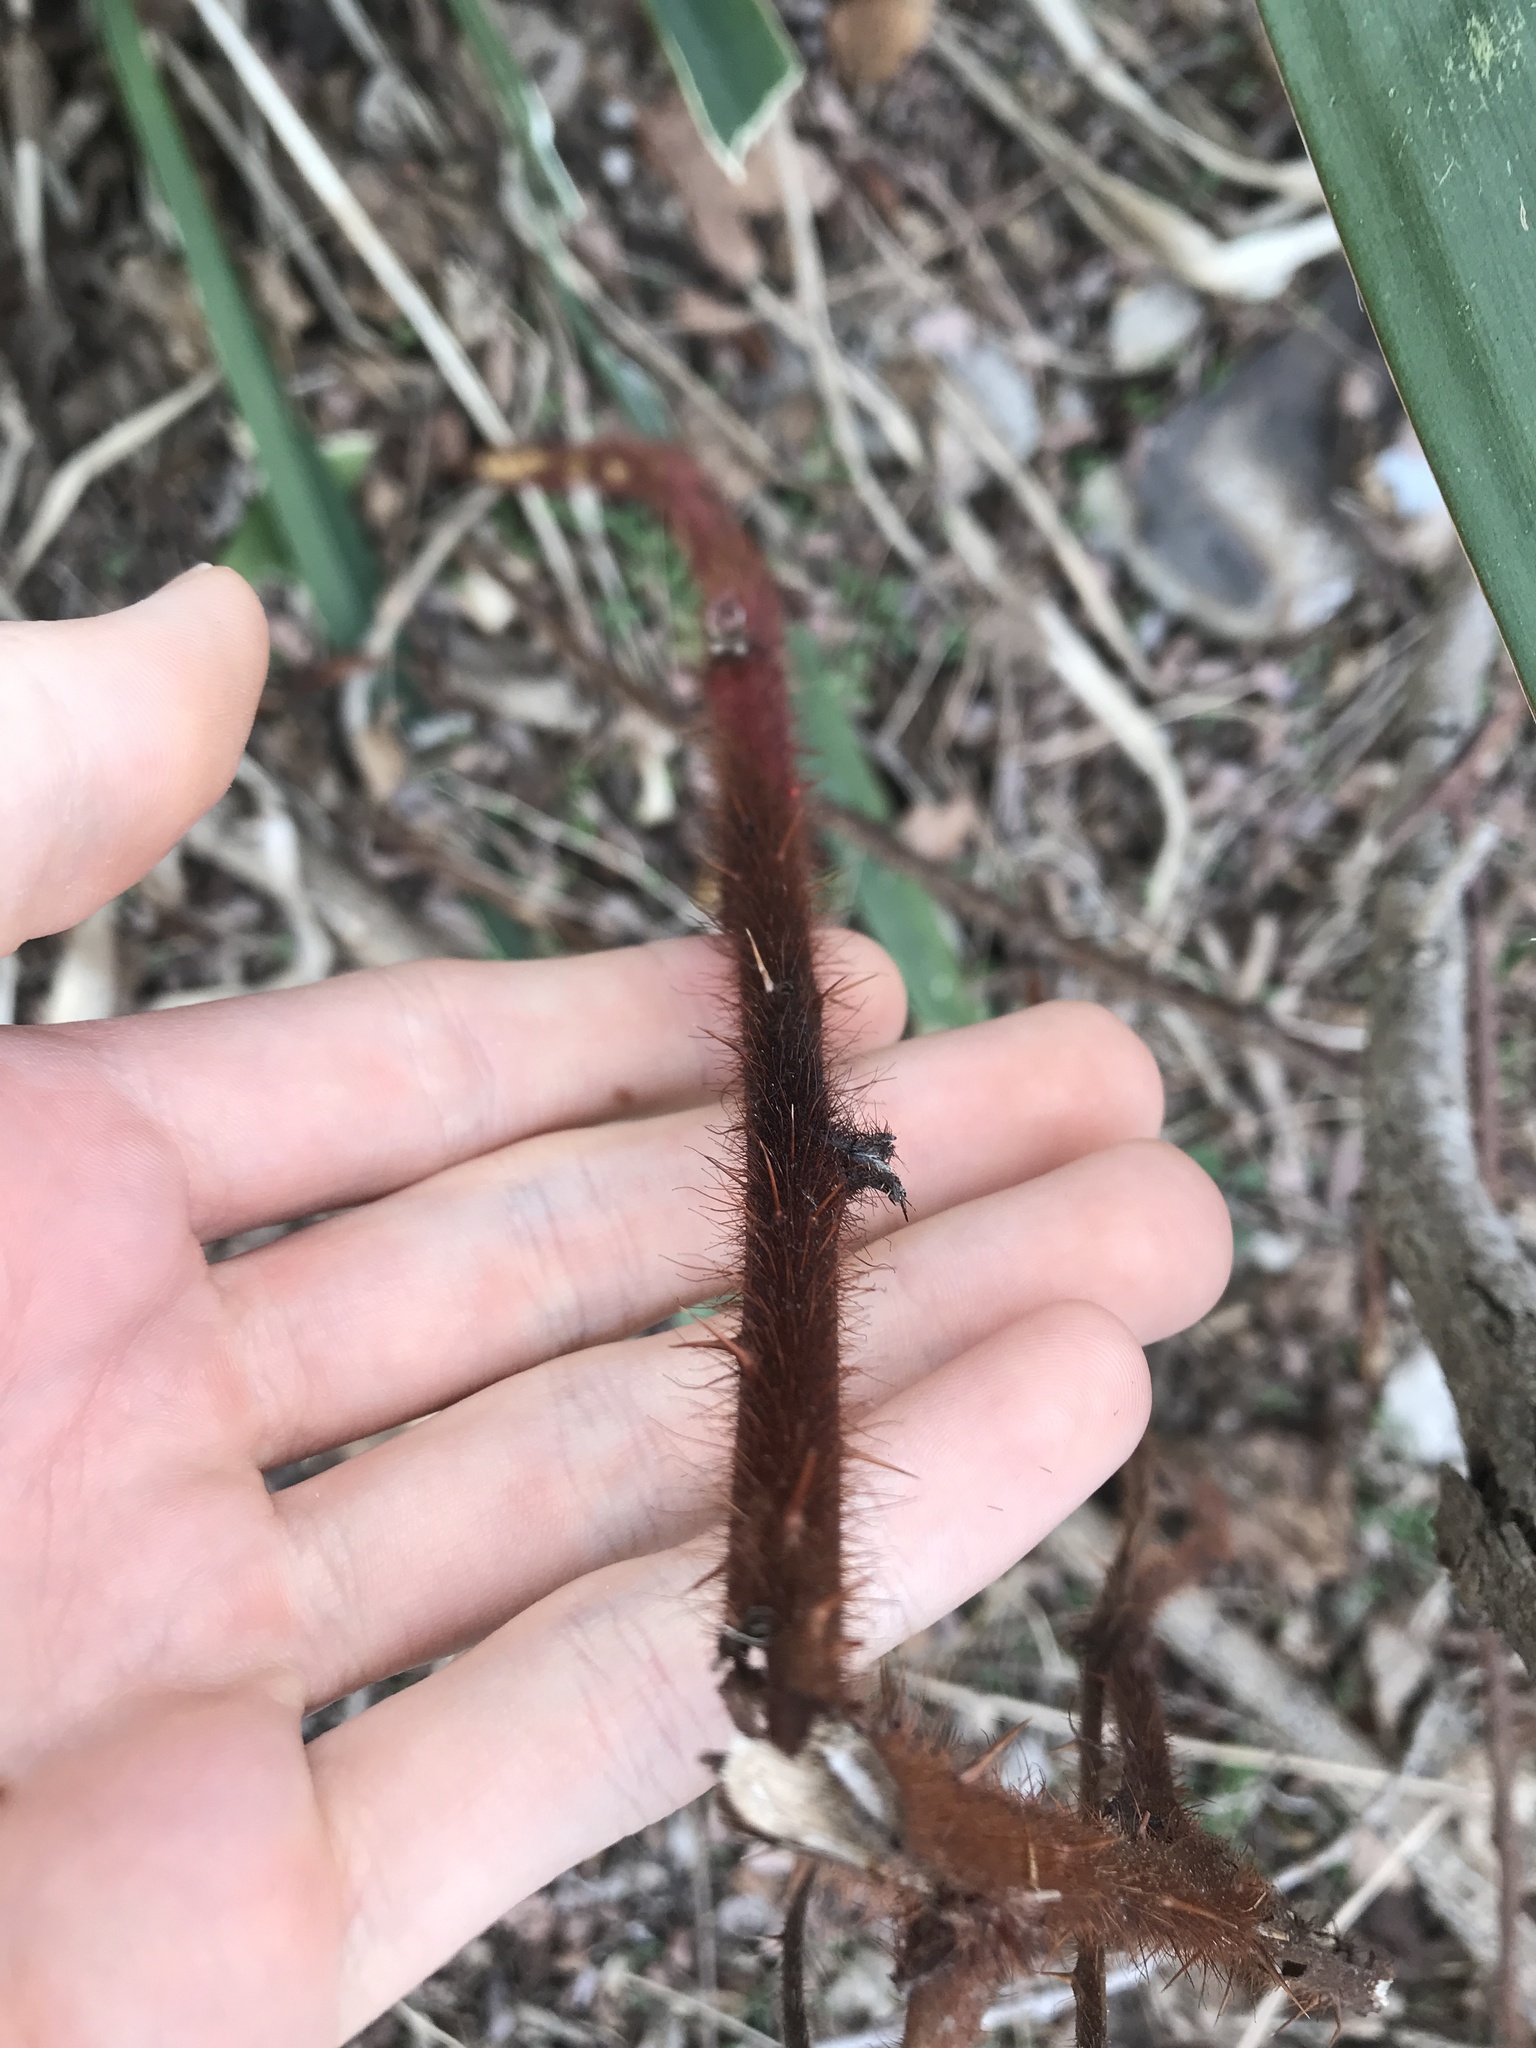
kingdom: Plantae
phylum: Tracheophyta
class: Magnoliopsida
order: Rosales
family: Rosaceae
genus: Rubus
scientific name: Rubus phoenicolasius
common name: Japanese wineberry
